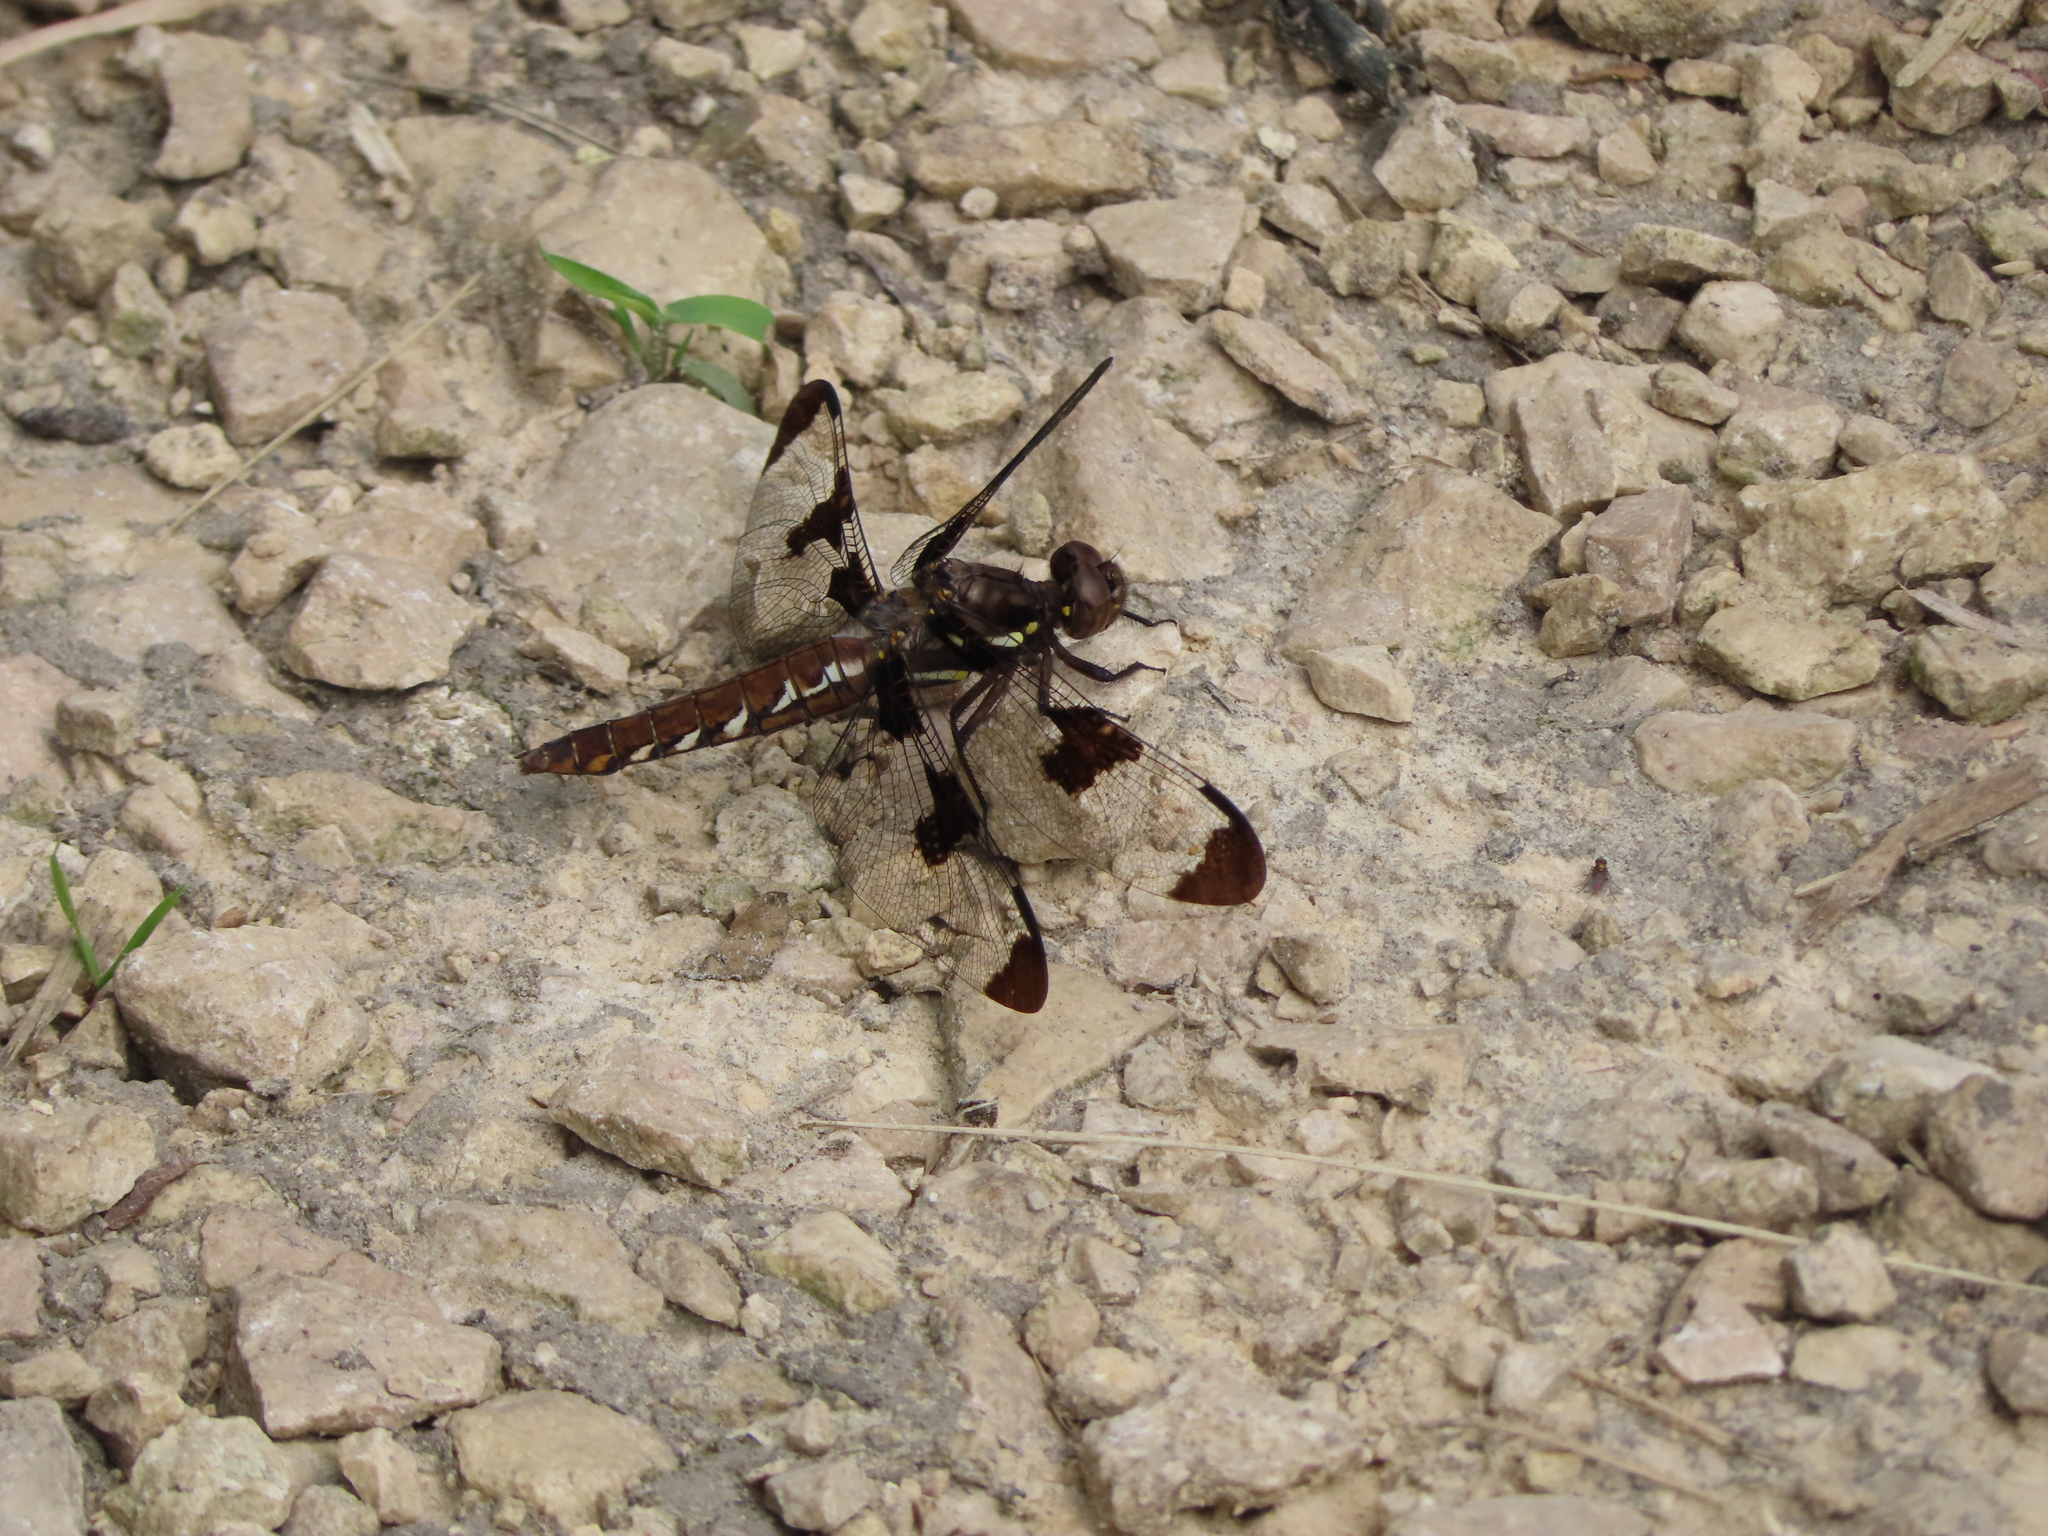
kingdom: Animalia
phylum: Arthropoda
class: Insecta
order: Odonata
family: Libellulidae
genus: Plathemis
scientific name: Plathemis lydia
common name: Common whitetail
